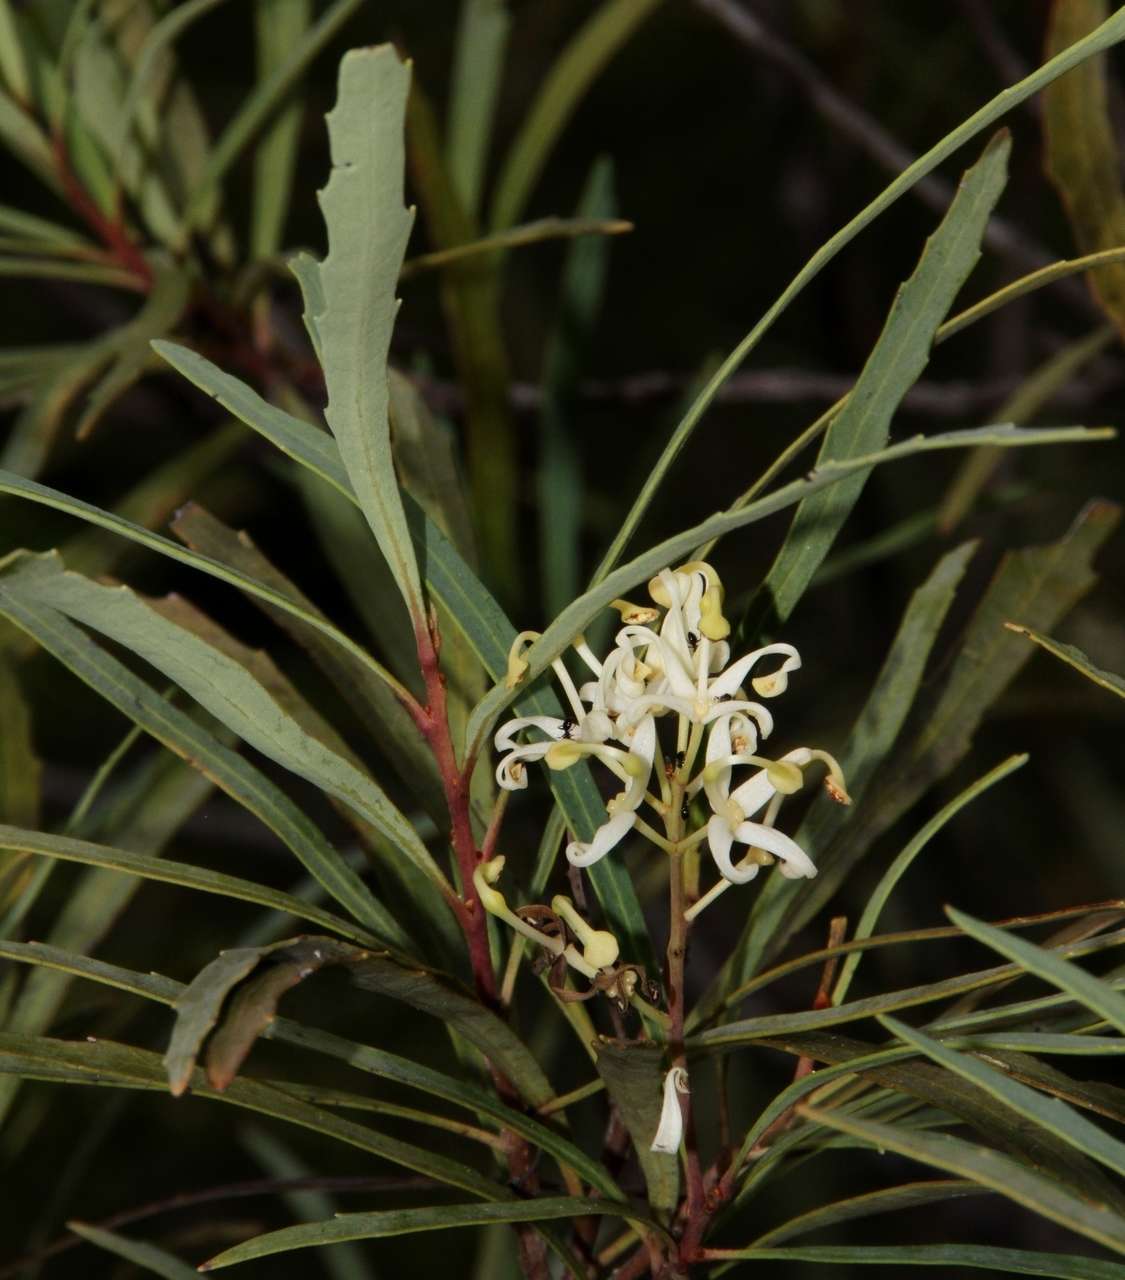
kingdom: Plantae
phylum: Tracheophyta
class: Magnoliopsida
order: Proteales
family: Proteaceae
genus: Lomatia
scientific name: Lomatia myricoides
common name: Longleaf lomatia
